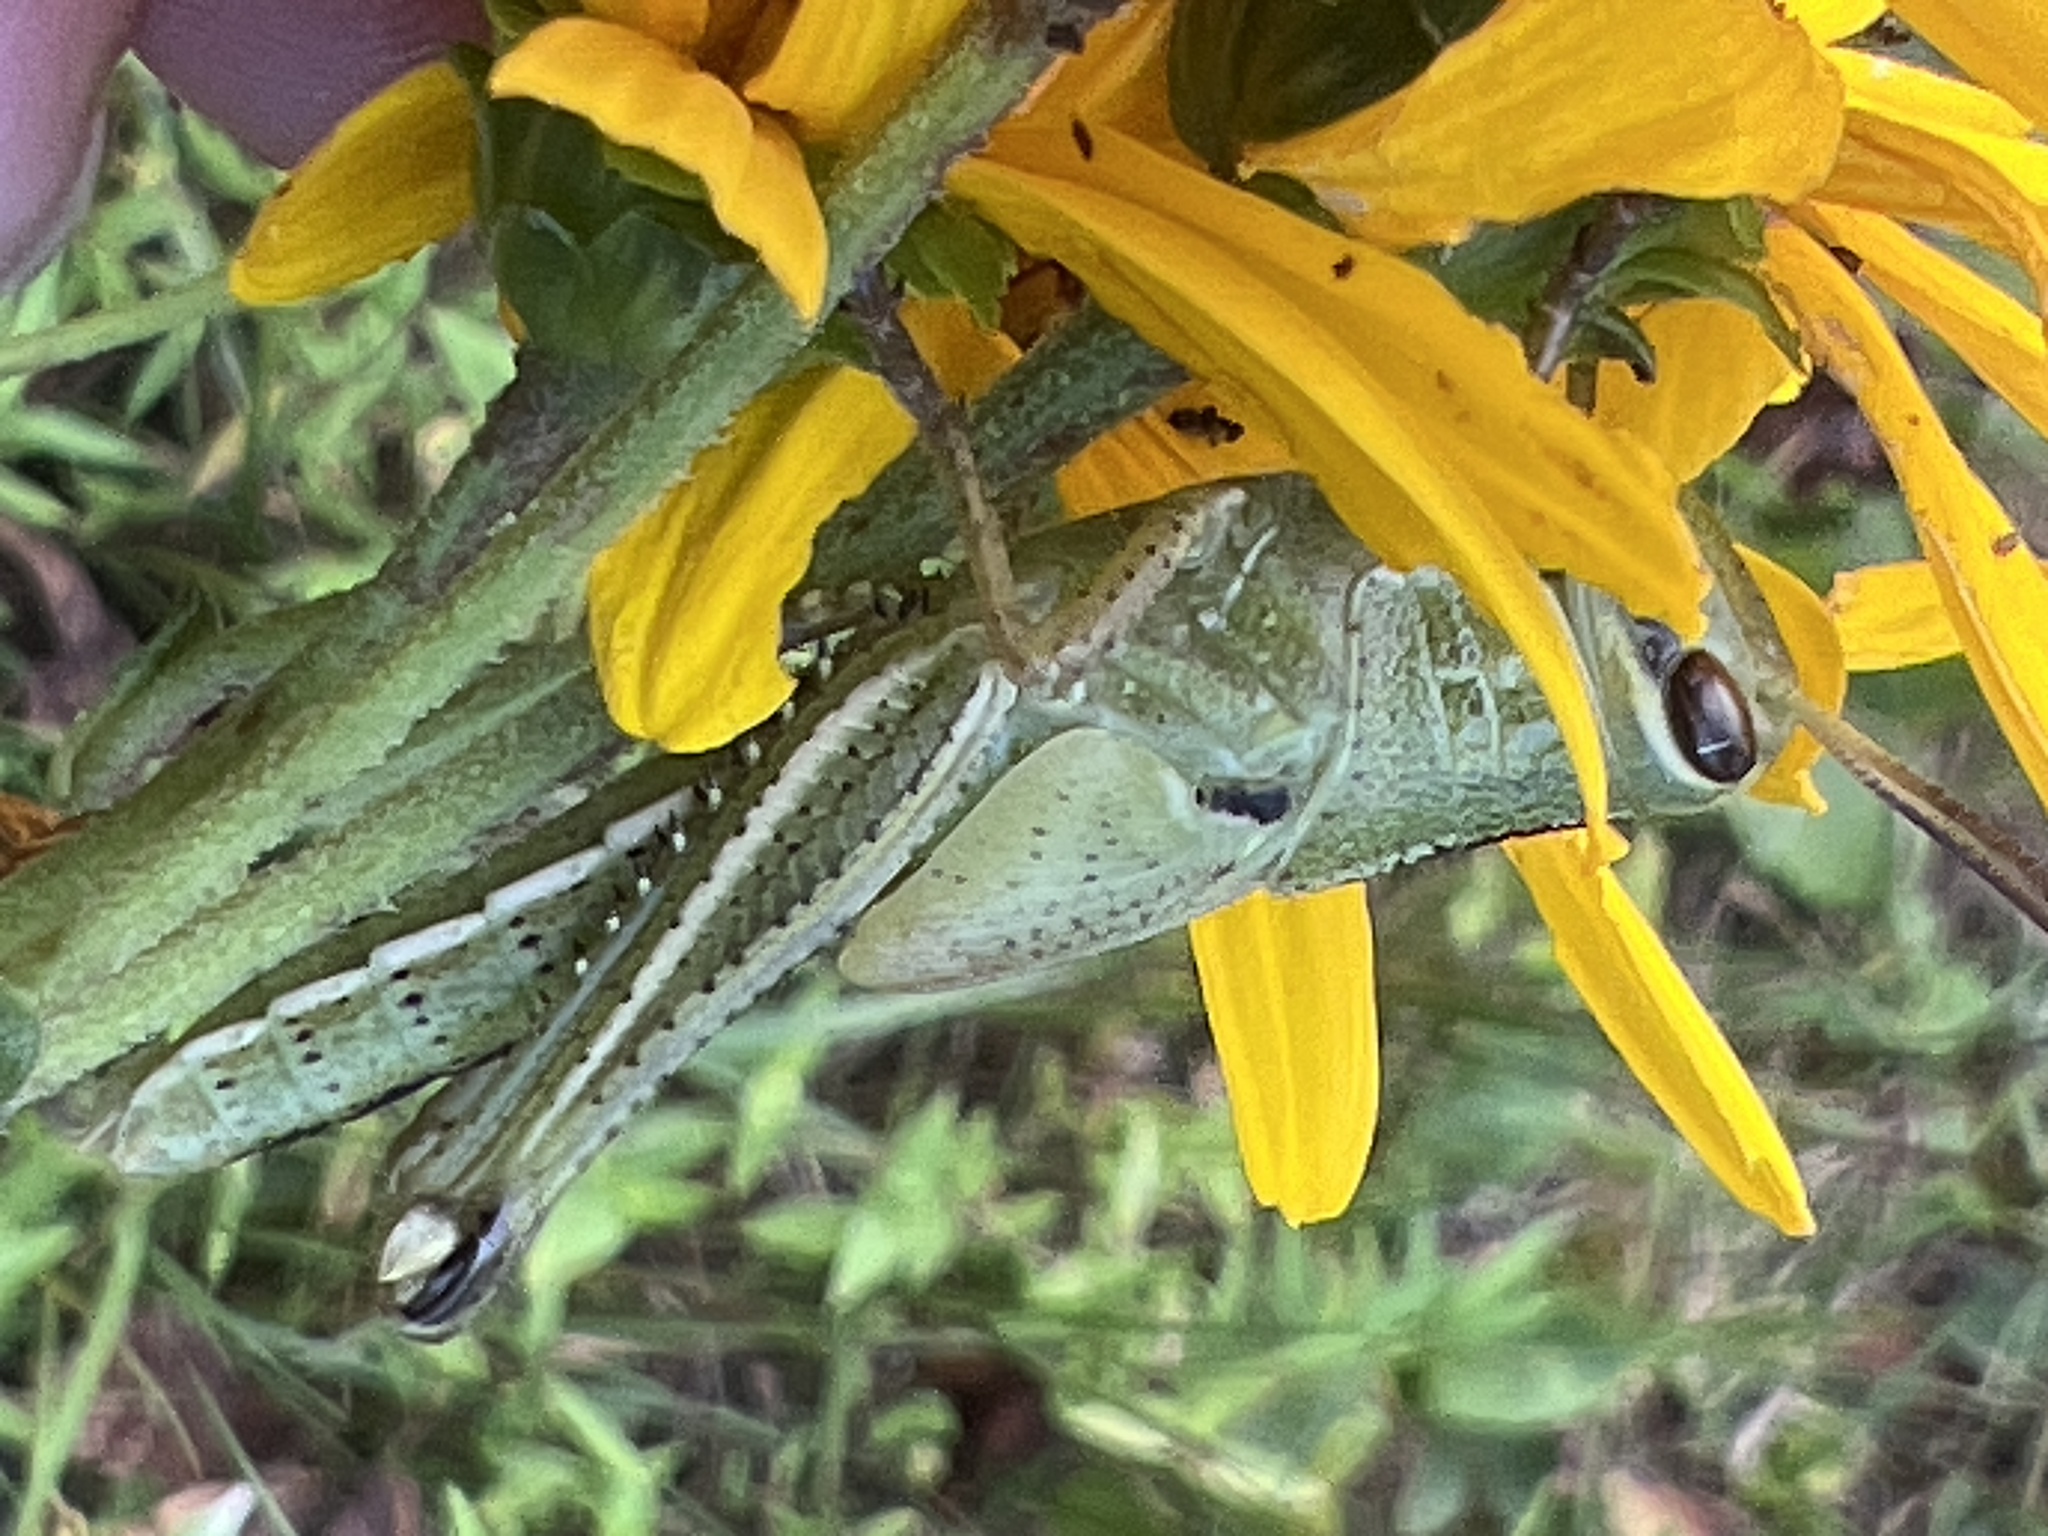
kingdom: Animalia
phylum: Arthropoda
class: Insecta
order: Orthoptera
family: Acrididae
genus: Schistocerca
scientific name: Schistocerca americana
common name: American bird locust
